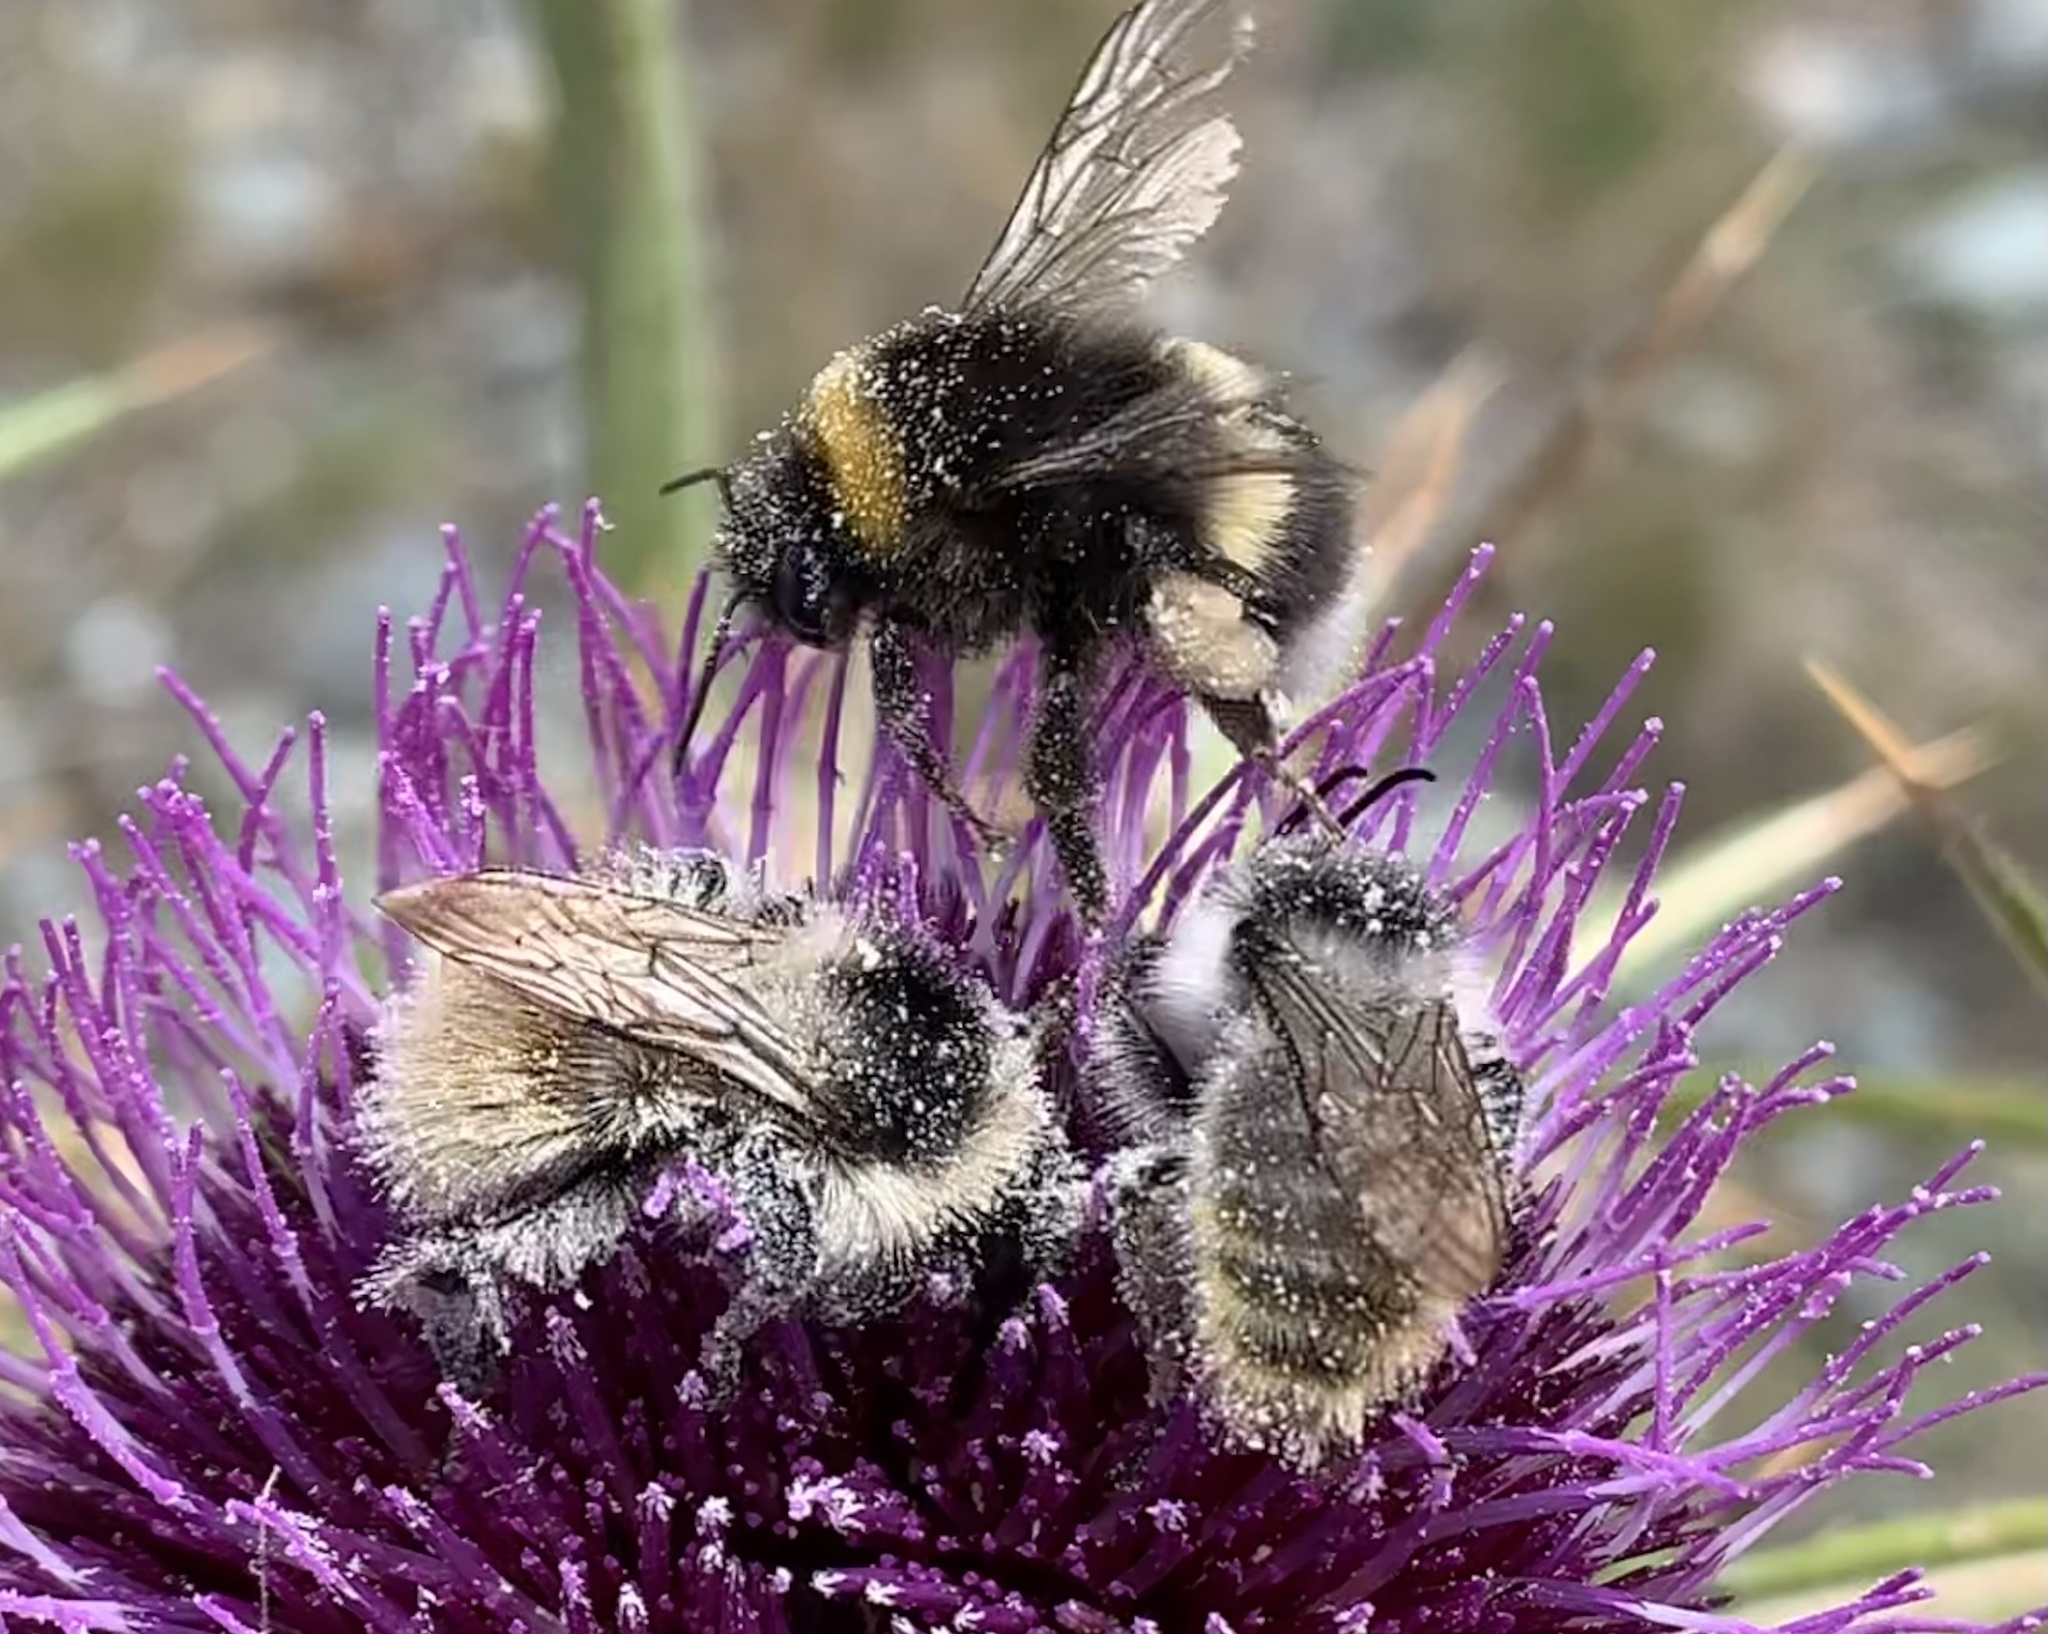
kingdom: Animalia
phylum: Arthropoda
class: Insecta
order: Hymenoptera
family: Apidae
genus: Bombus
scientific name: Bombus mesomelas
